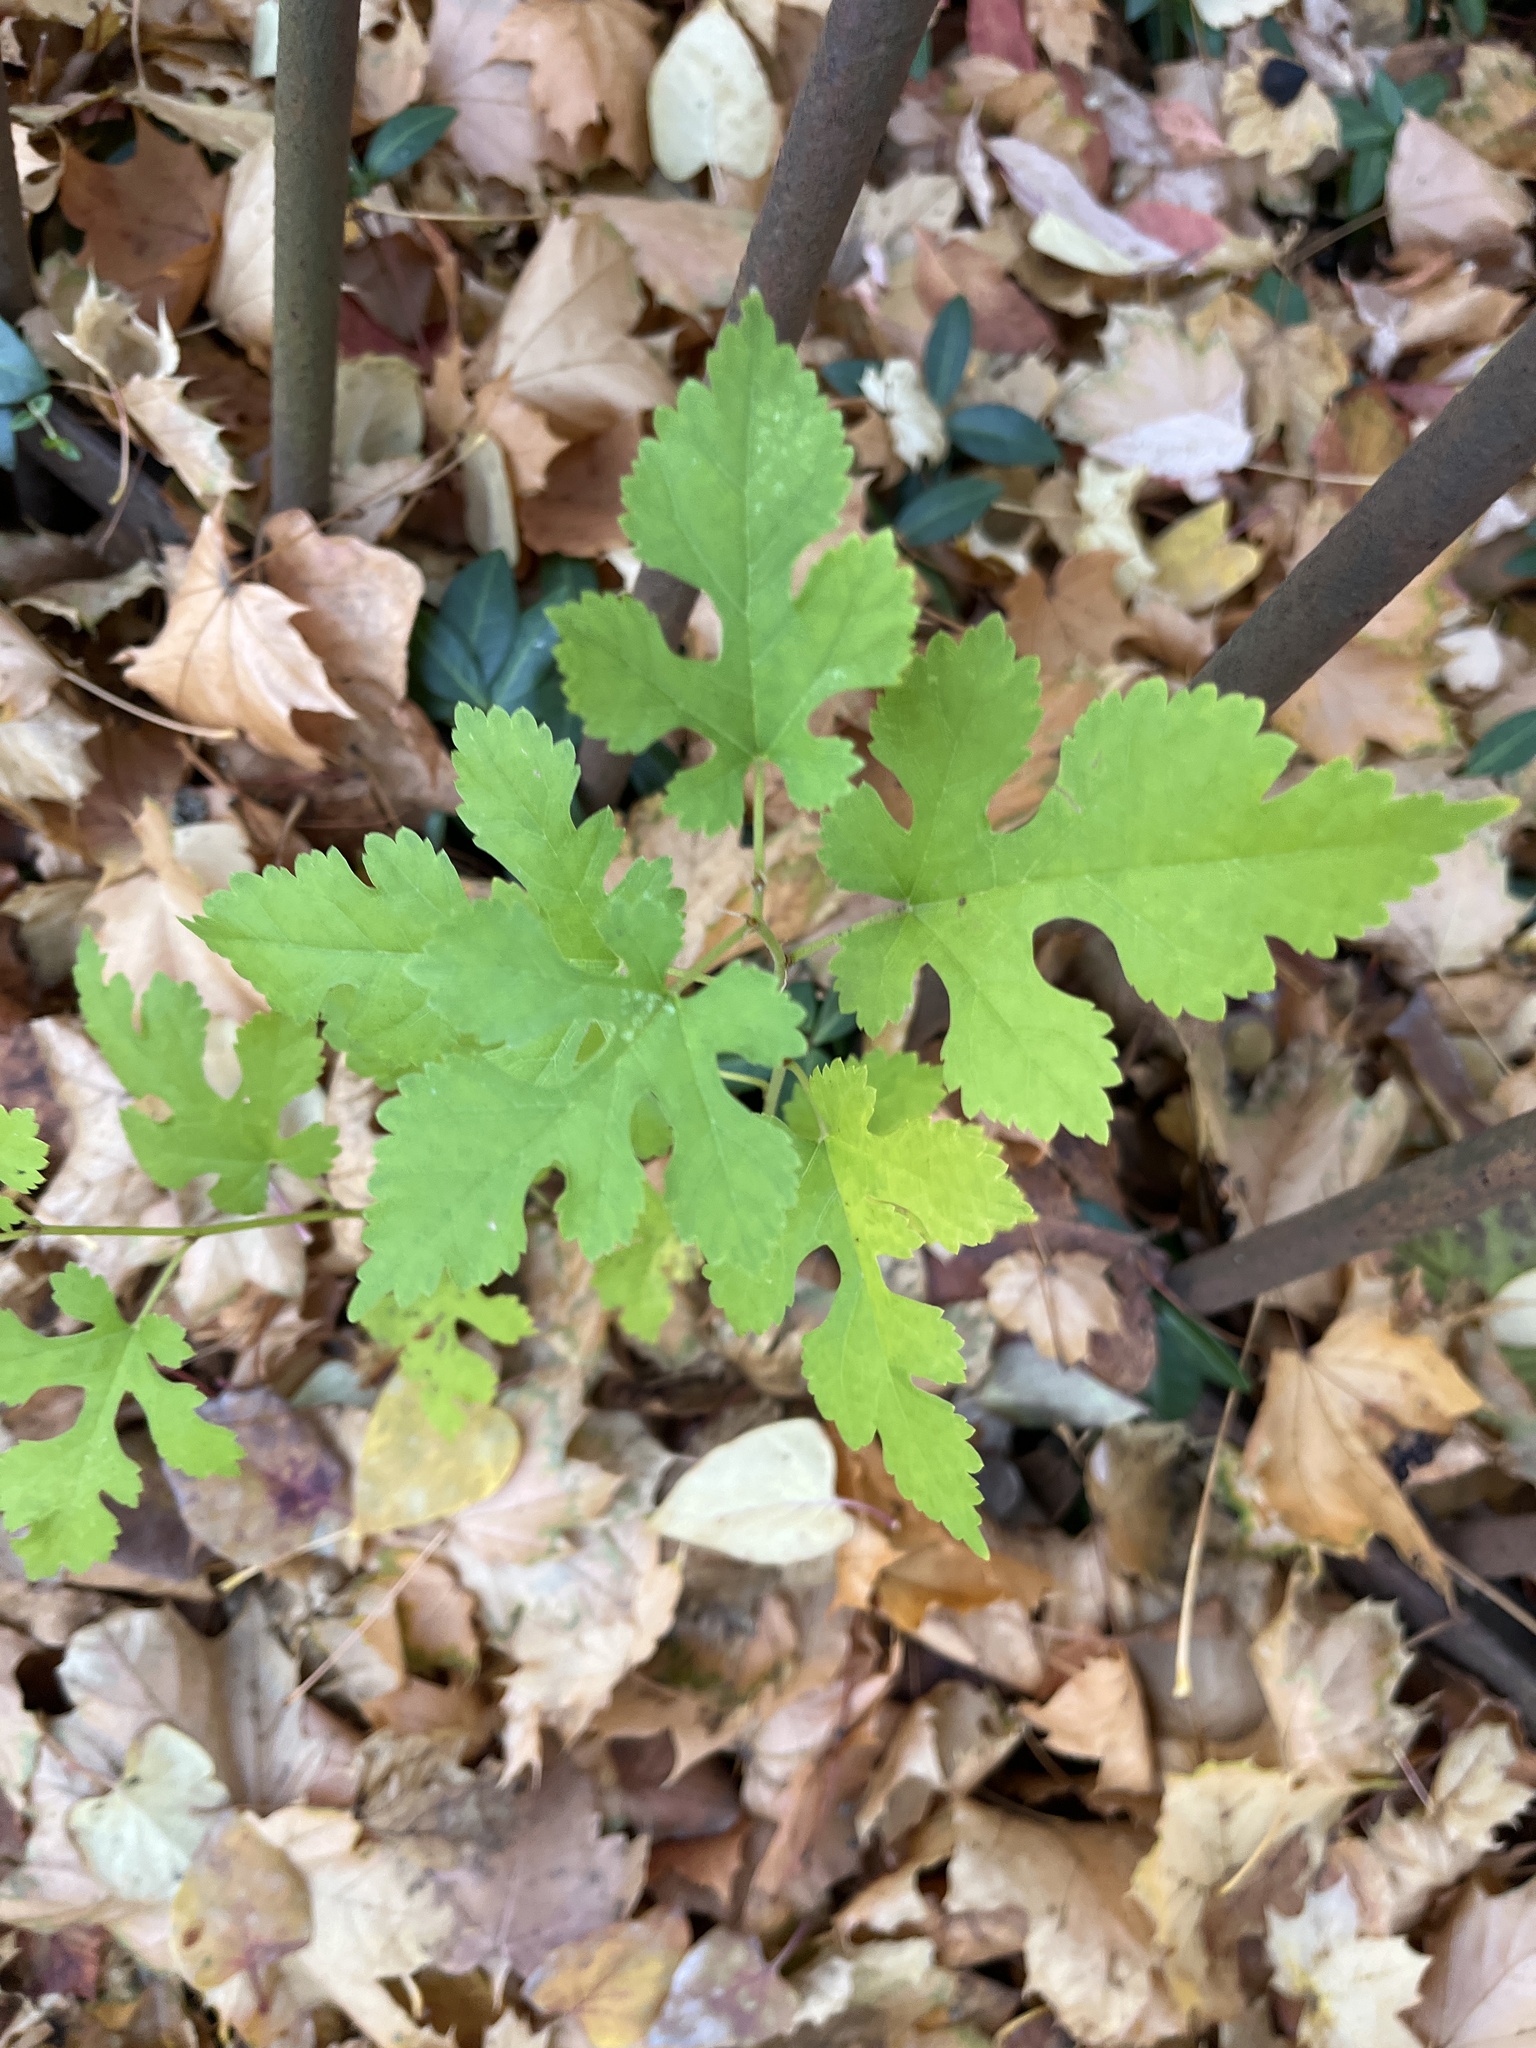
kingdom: Plantae
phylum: Tracheophyta
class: Magnoliopsida
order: Rosales
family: Moraceae
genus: Morus
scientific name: Morus alba
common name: White mulberry
